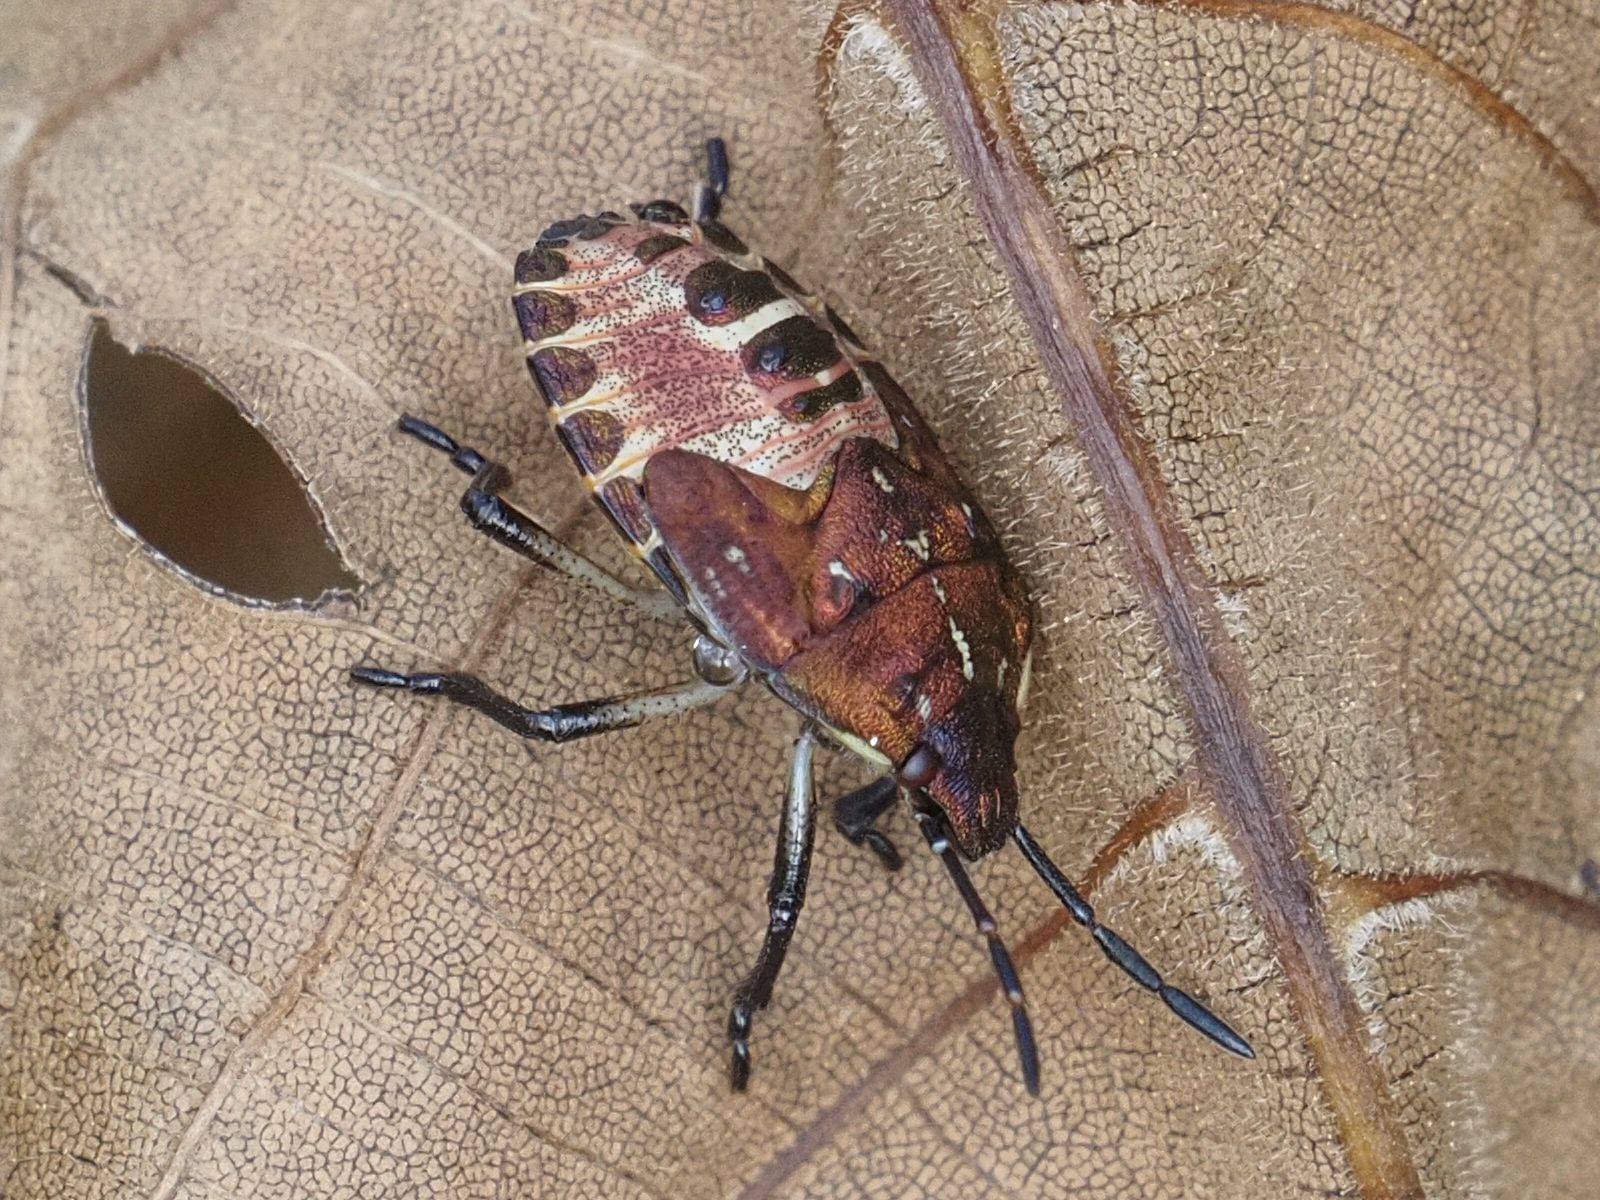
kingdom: Animalia
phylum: Arthropoda
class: Insecta
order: Hemiptera
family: Pentatomidae
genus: Carpocoris
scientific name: Carpocoris purpureipennis
